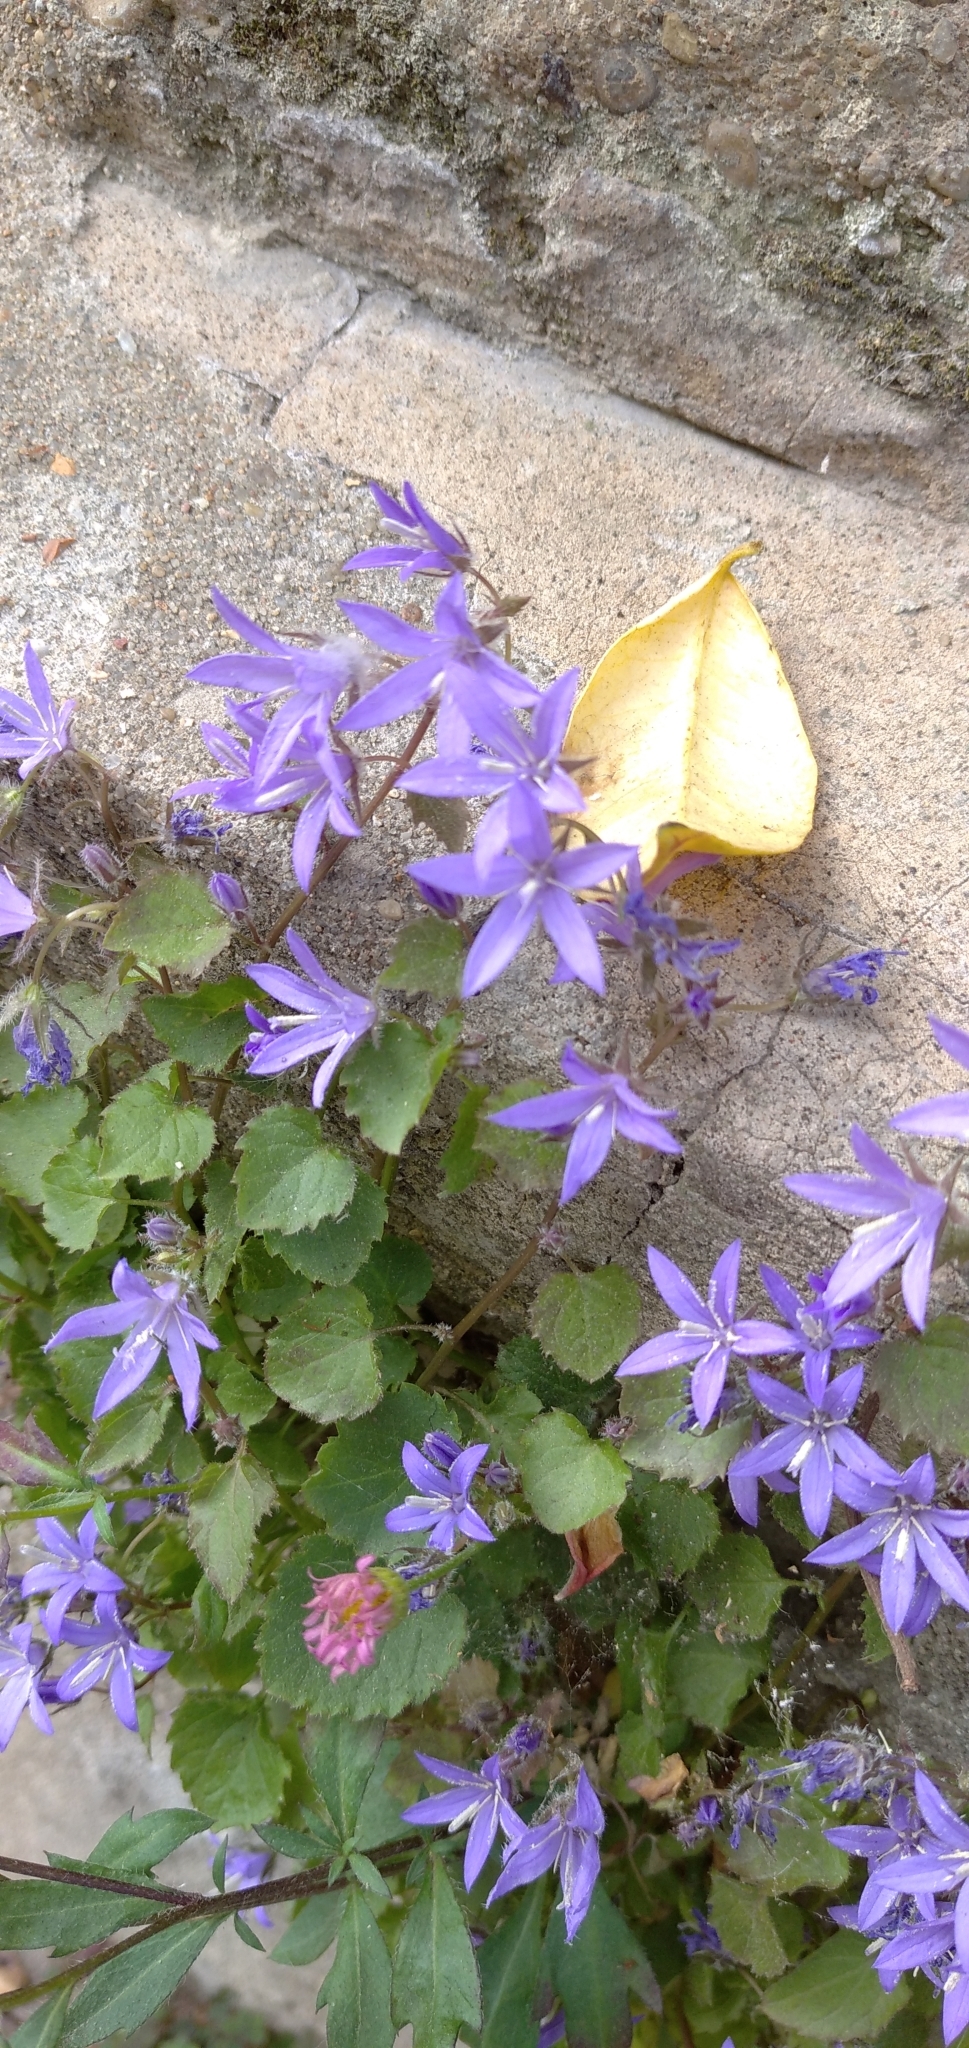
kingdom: Plantae
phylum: Tracheophyta
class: Magnoliopsida
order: Asterales
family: Campanulaceae
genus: Campanula
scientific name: Campanula poscharskyana
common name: Trailing bellflower
